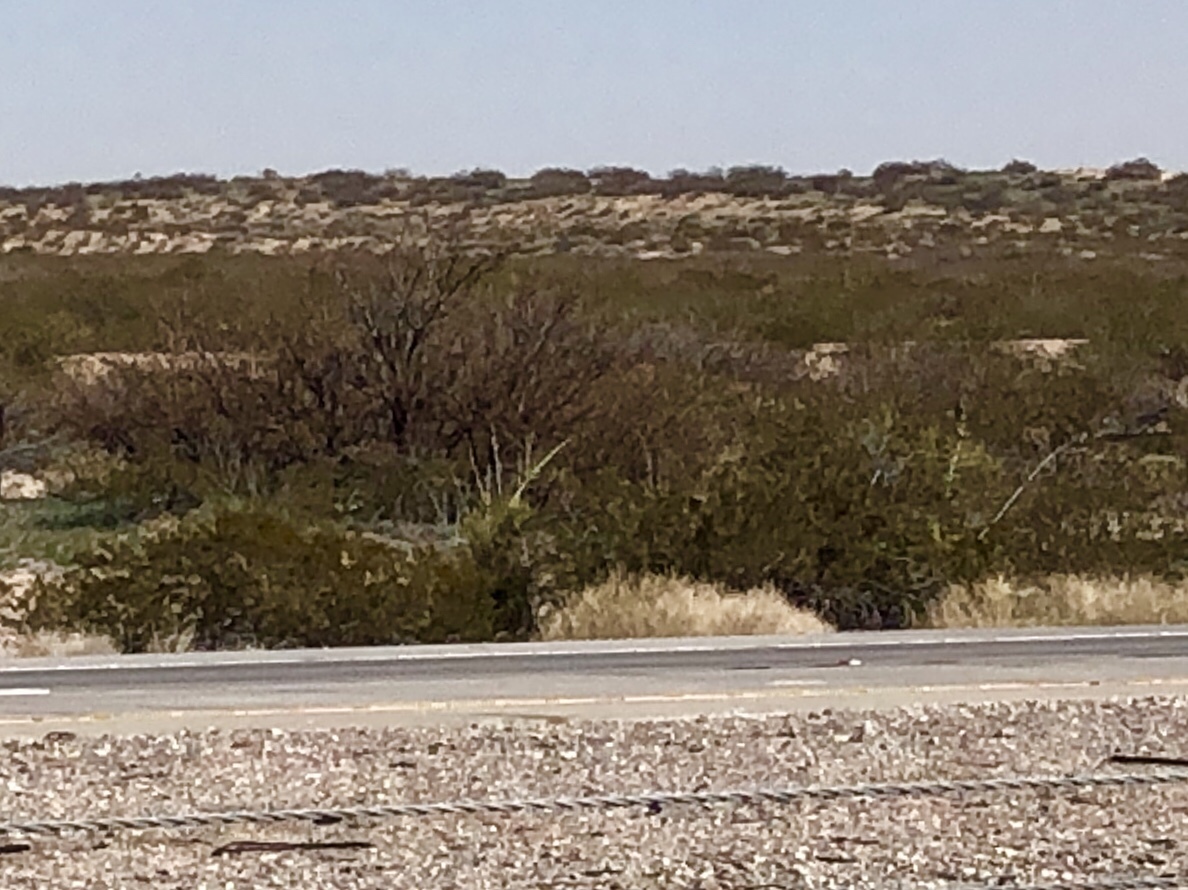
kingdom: Plantae
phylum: Tracheophyta
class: Magnoliopsida
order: Zygophyllales
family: Zygophyllaceae
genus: Larrea
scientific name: Larrea tridentata
